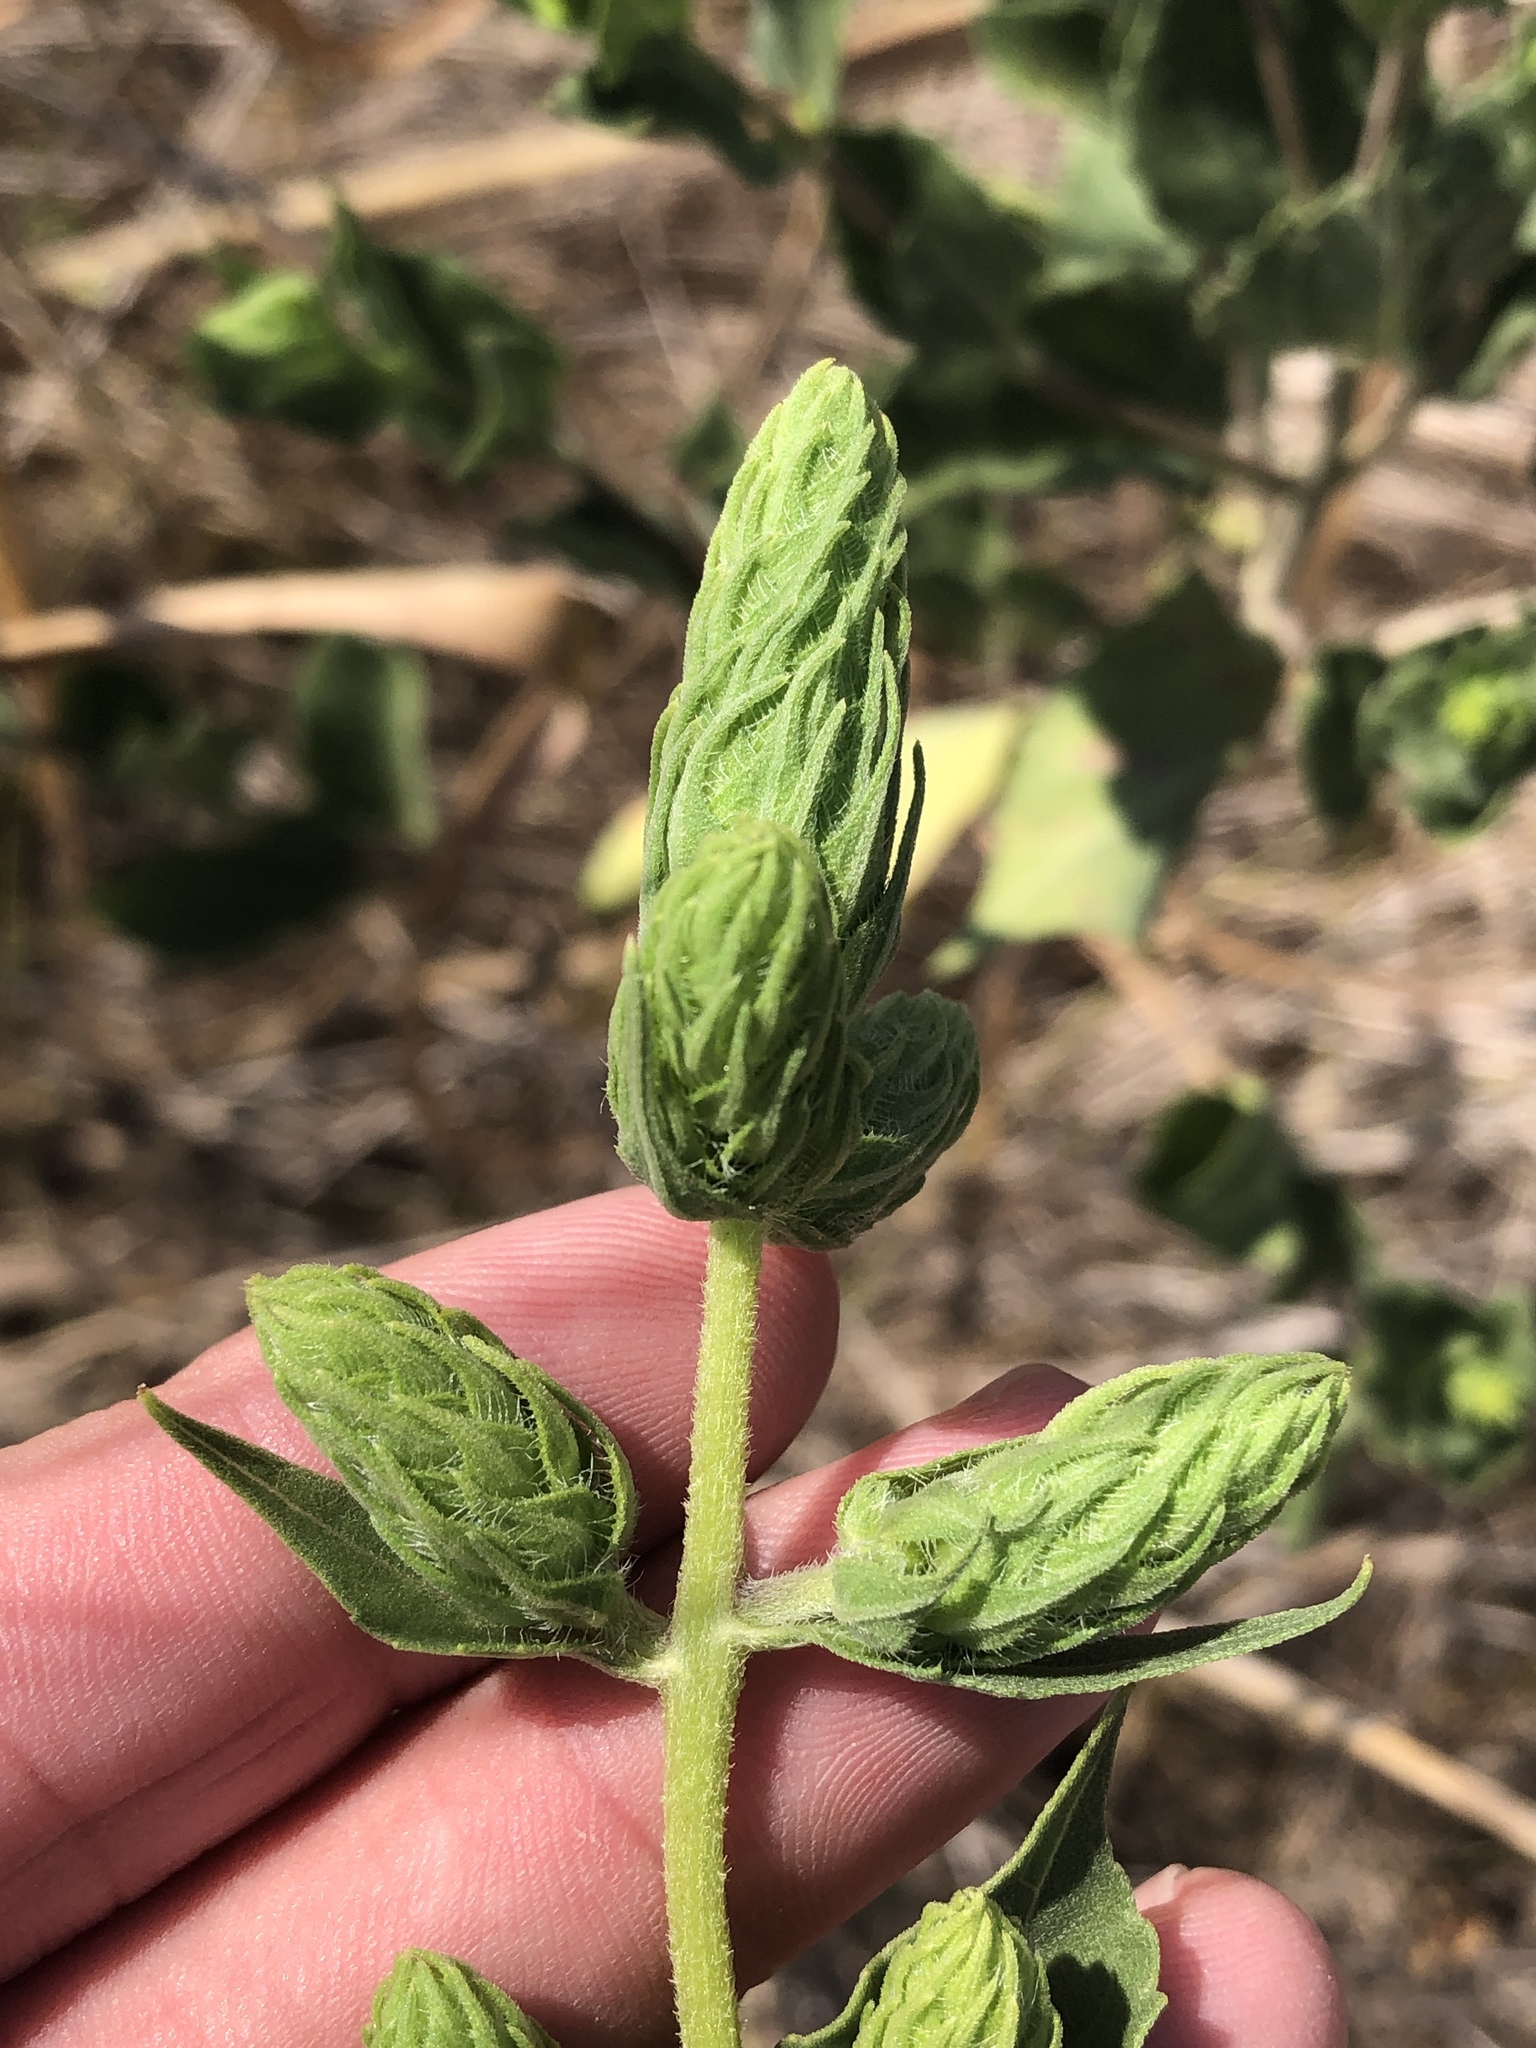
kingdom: Plantae
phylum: Tracheophyta
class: Magnoliopsida
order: Asterales
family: Asteraceae
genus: Iva
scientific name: Iva annua
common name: Marsh-elder
